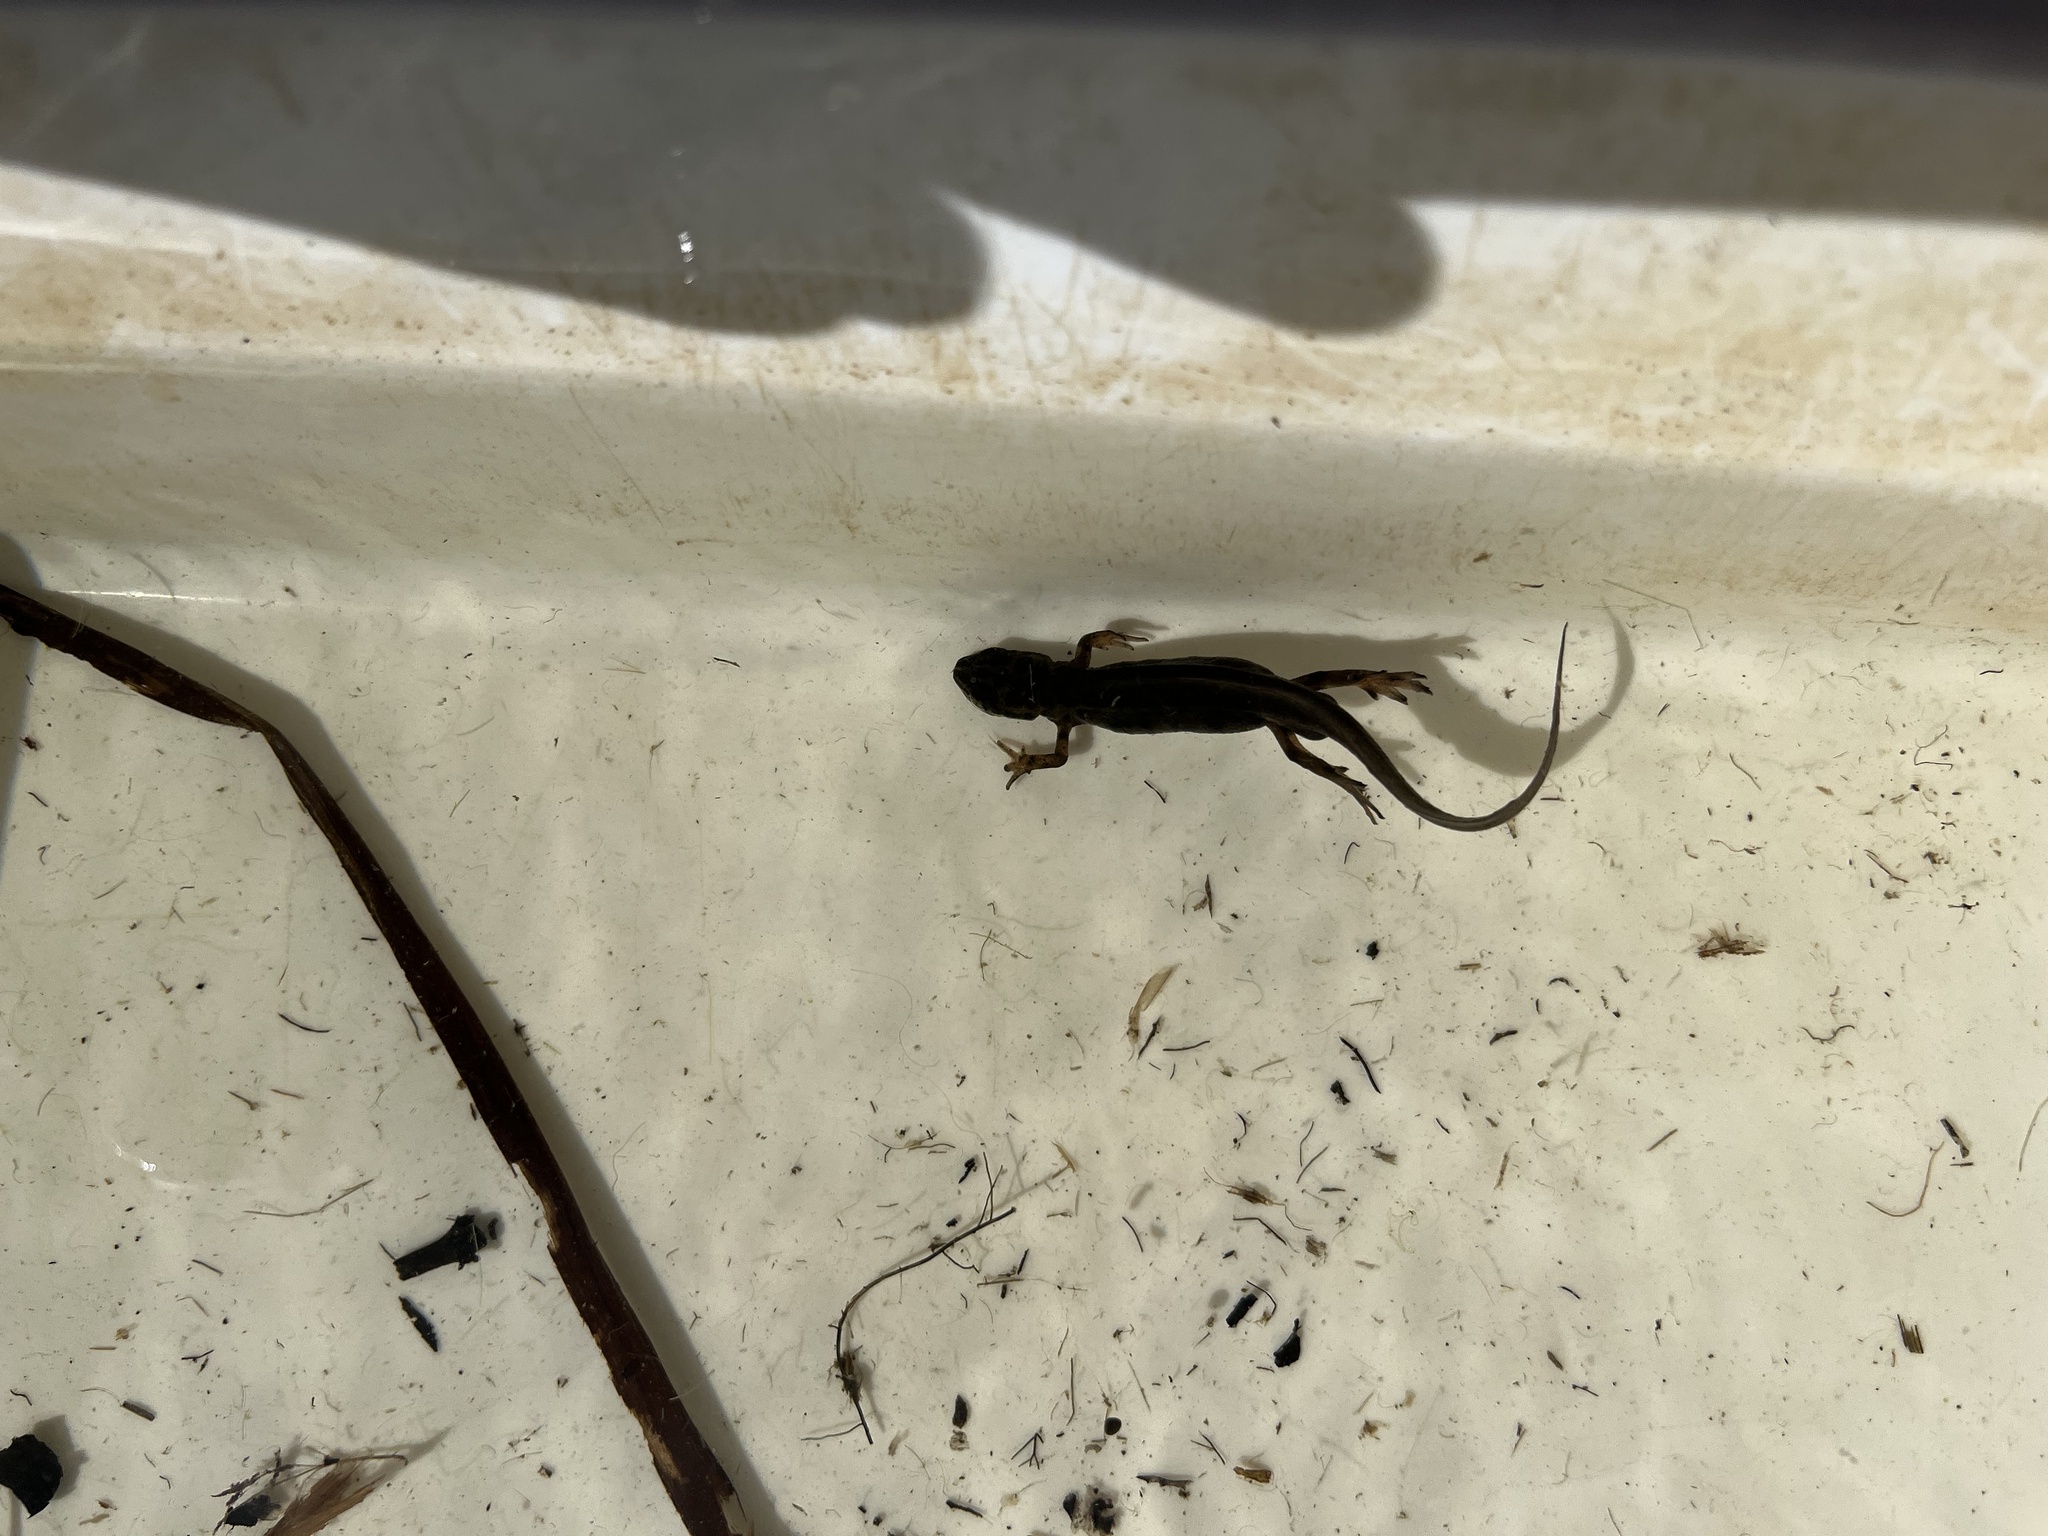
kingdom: Animalia
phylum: Chordata
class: Amphibia
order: Caudata
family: Salamandridae
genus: Lissotriton
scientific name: Lissotriton vulgaris
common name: Smooth newt
